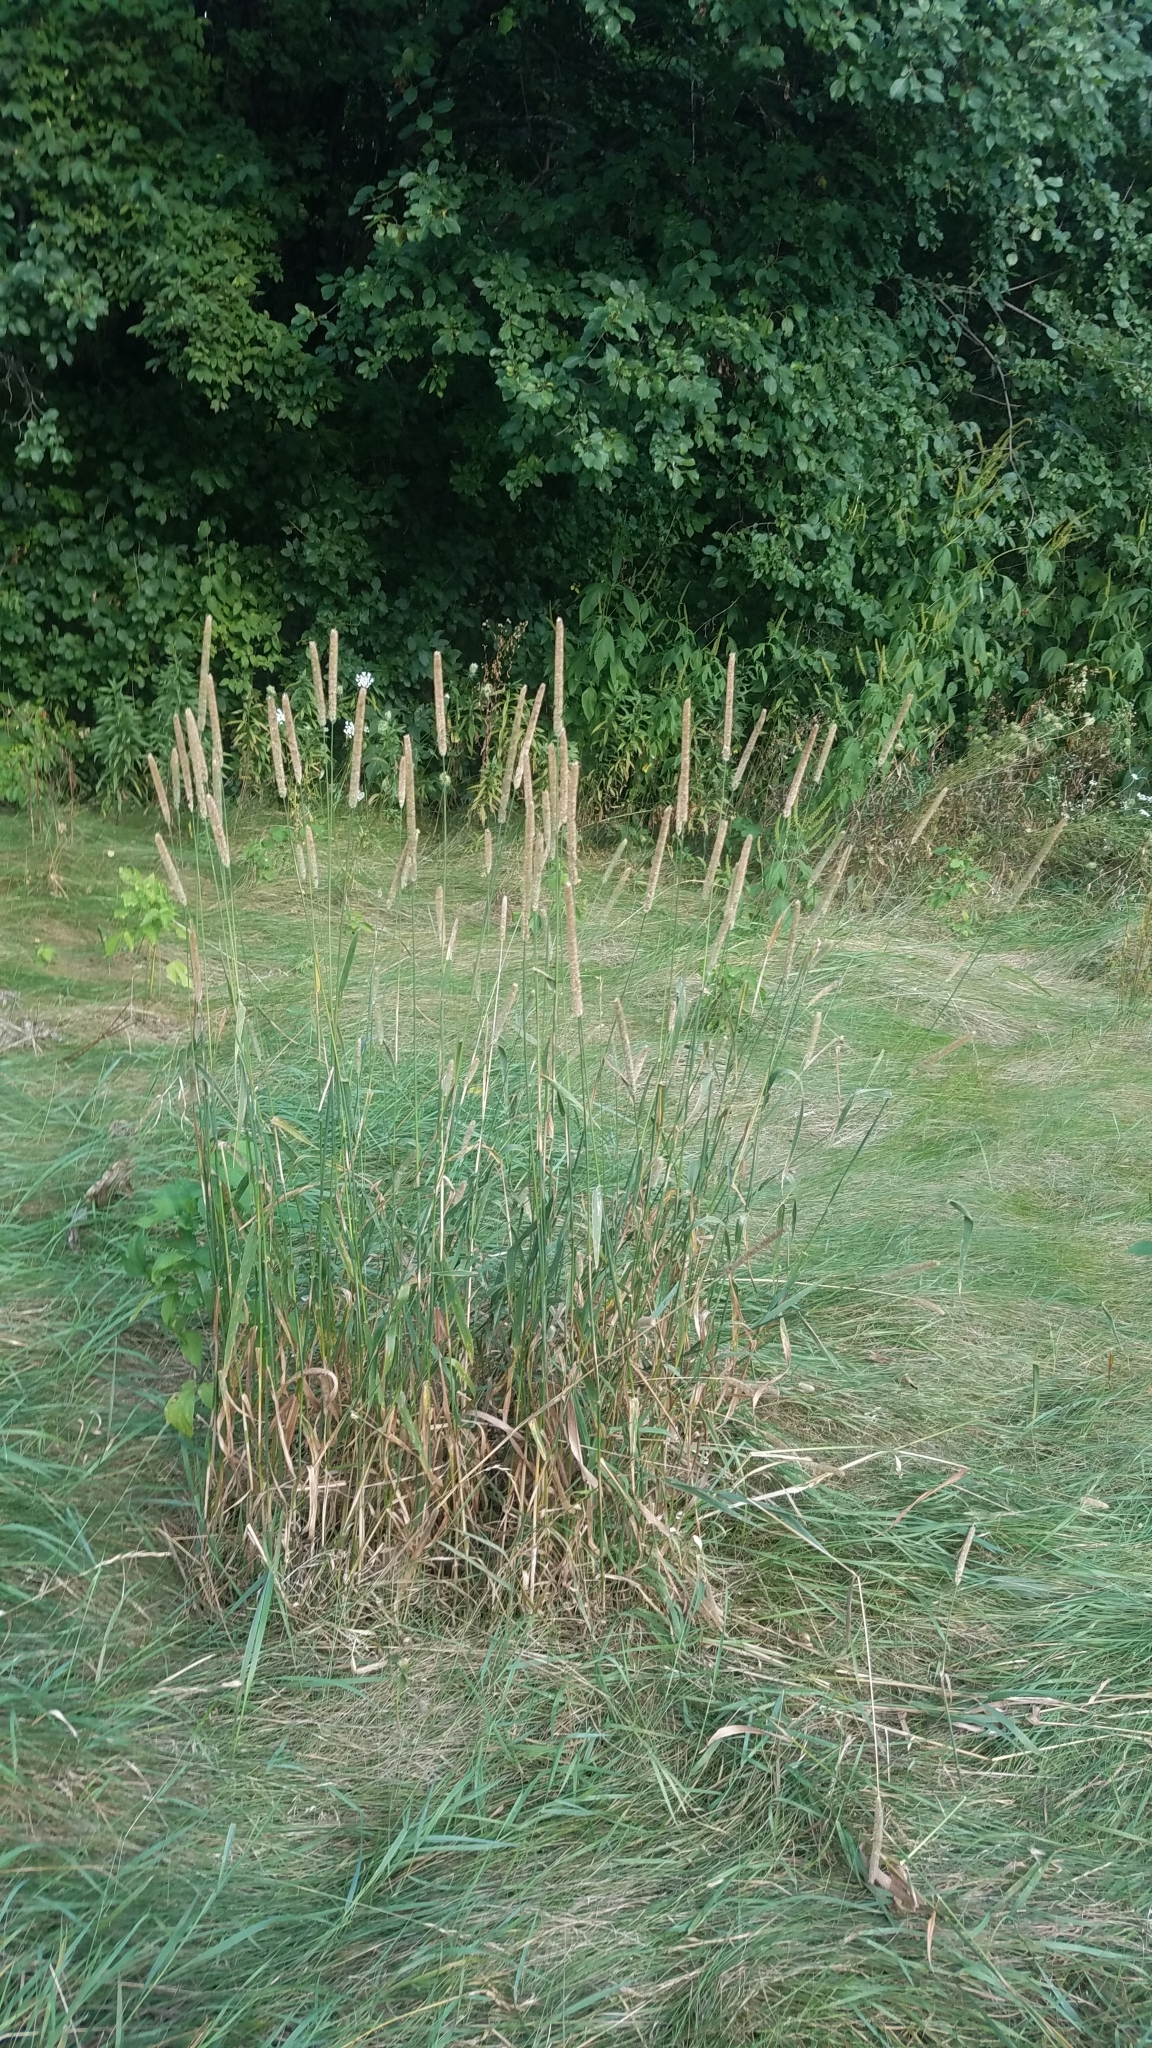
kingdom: Plantae
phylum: Tracheophyta
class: Liliopsida
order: Poales
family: Poaceae
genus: Phleum
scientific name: Phleum pratense
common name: Timothy grass
